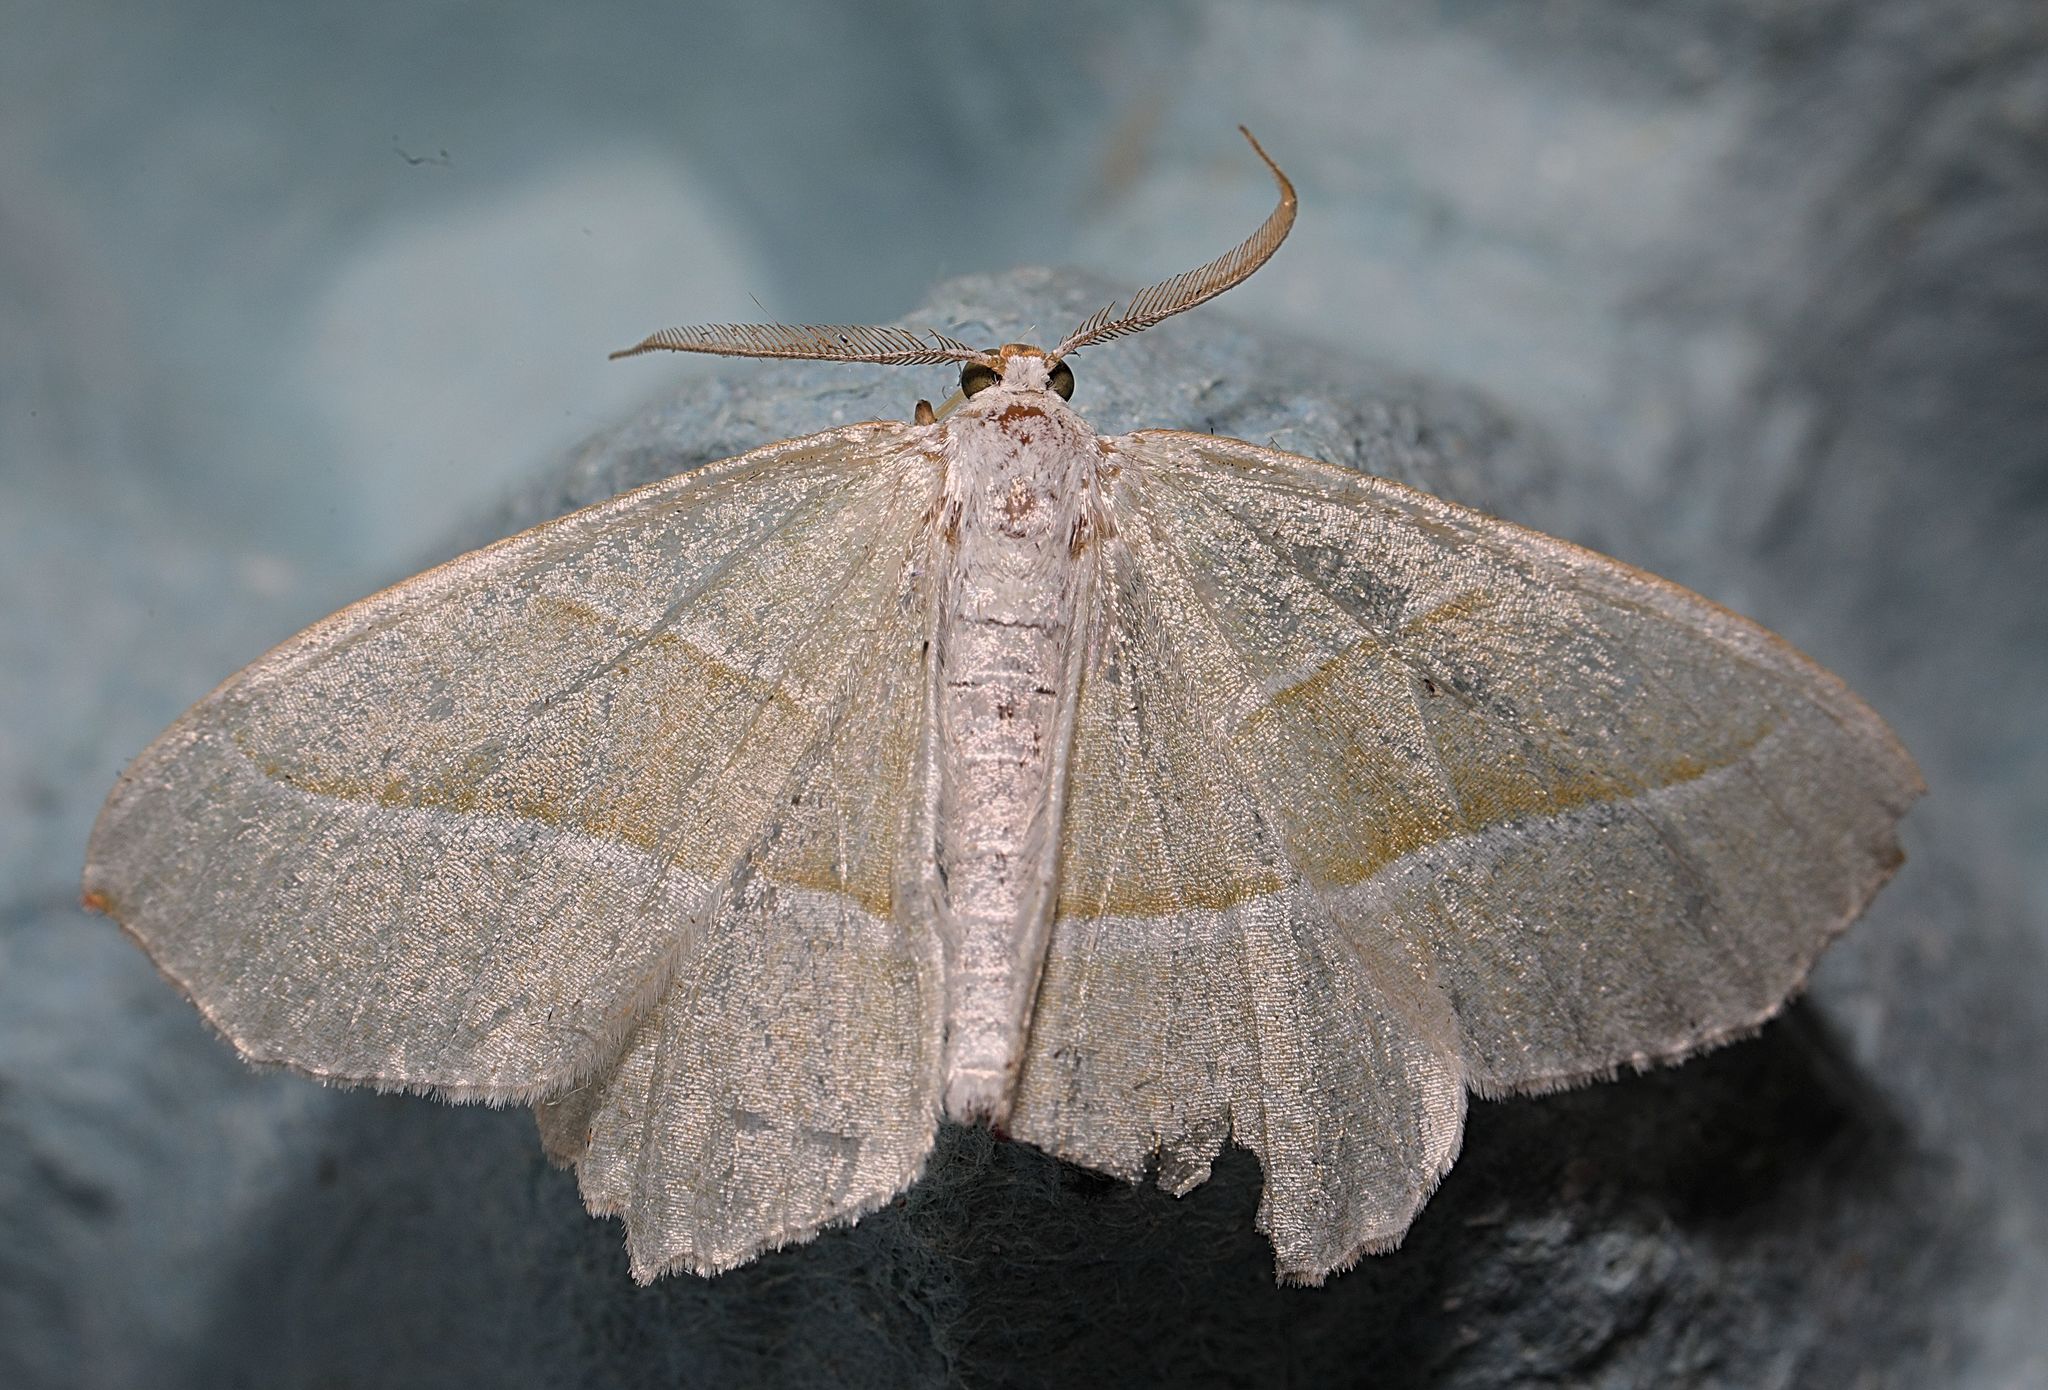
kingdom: Animalia
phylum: Arthropoda
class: Insecta
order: Lepidoptera
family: Geometridae
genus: Campaea
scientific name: Campaea margaritaria
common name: Light emerald
